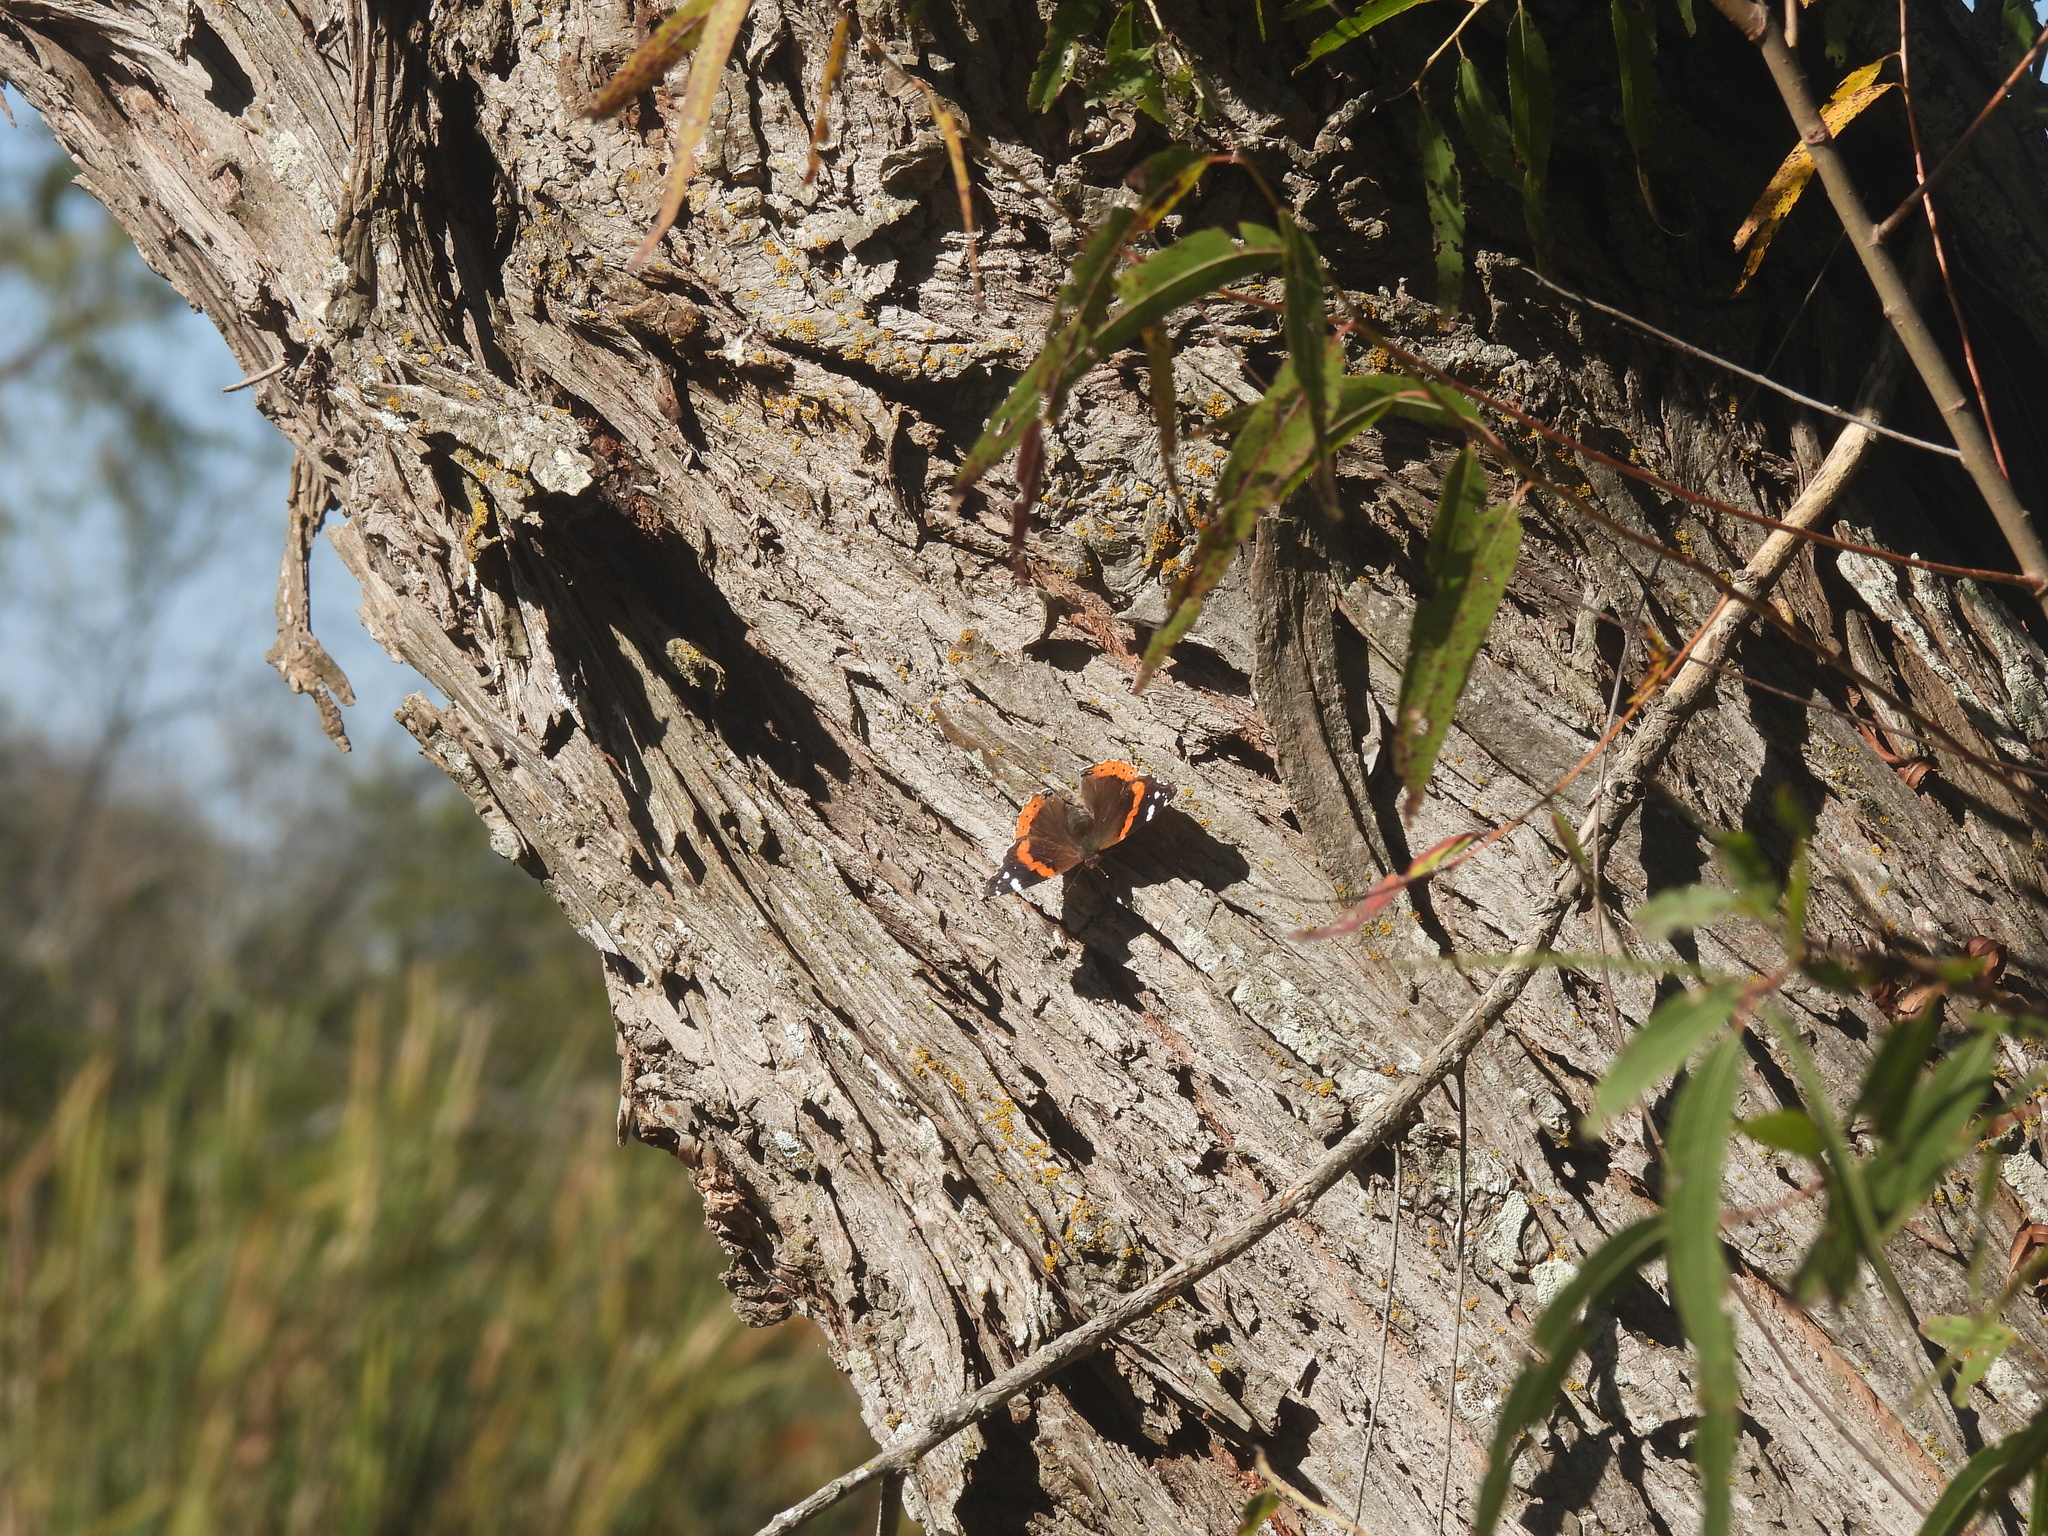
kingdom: Animalia
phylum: Arthropoda
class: Insecta
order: Lepidoptera
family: Nymphalidae
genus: Vanessa
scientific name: Vanessa atalanta
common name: Red admiral
